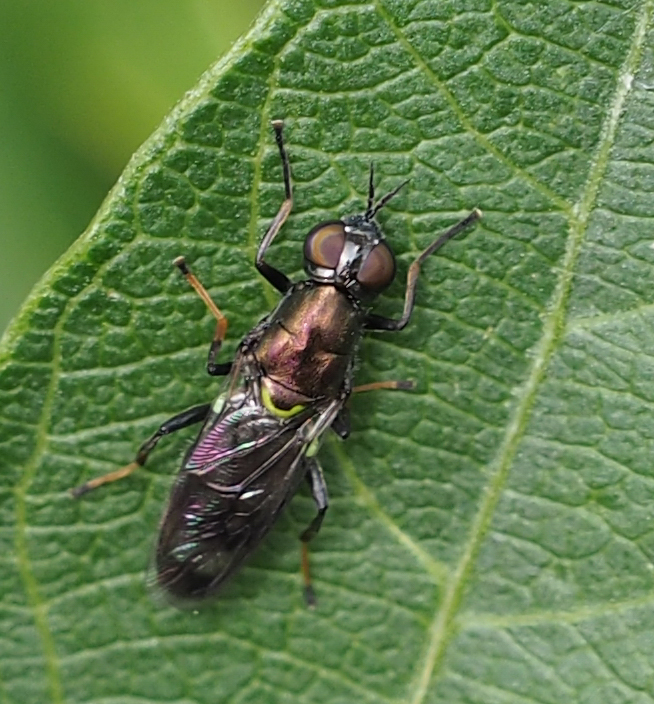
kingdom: Animalia
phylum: Arthropoda
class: Insecta
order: Diptera
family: Stratiomyidae
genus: Myxosargus
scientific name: Myxosargus nigricormis
